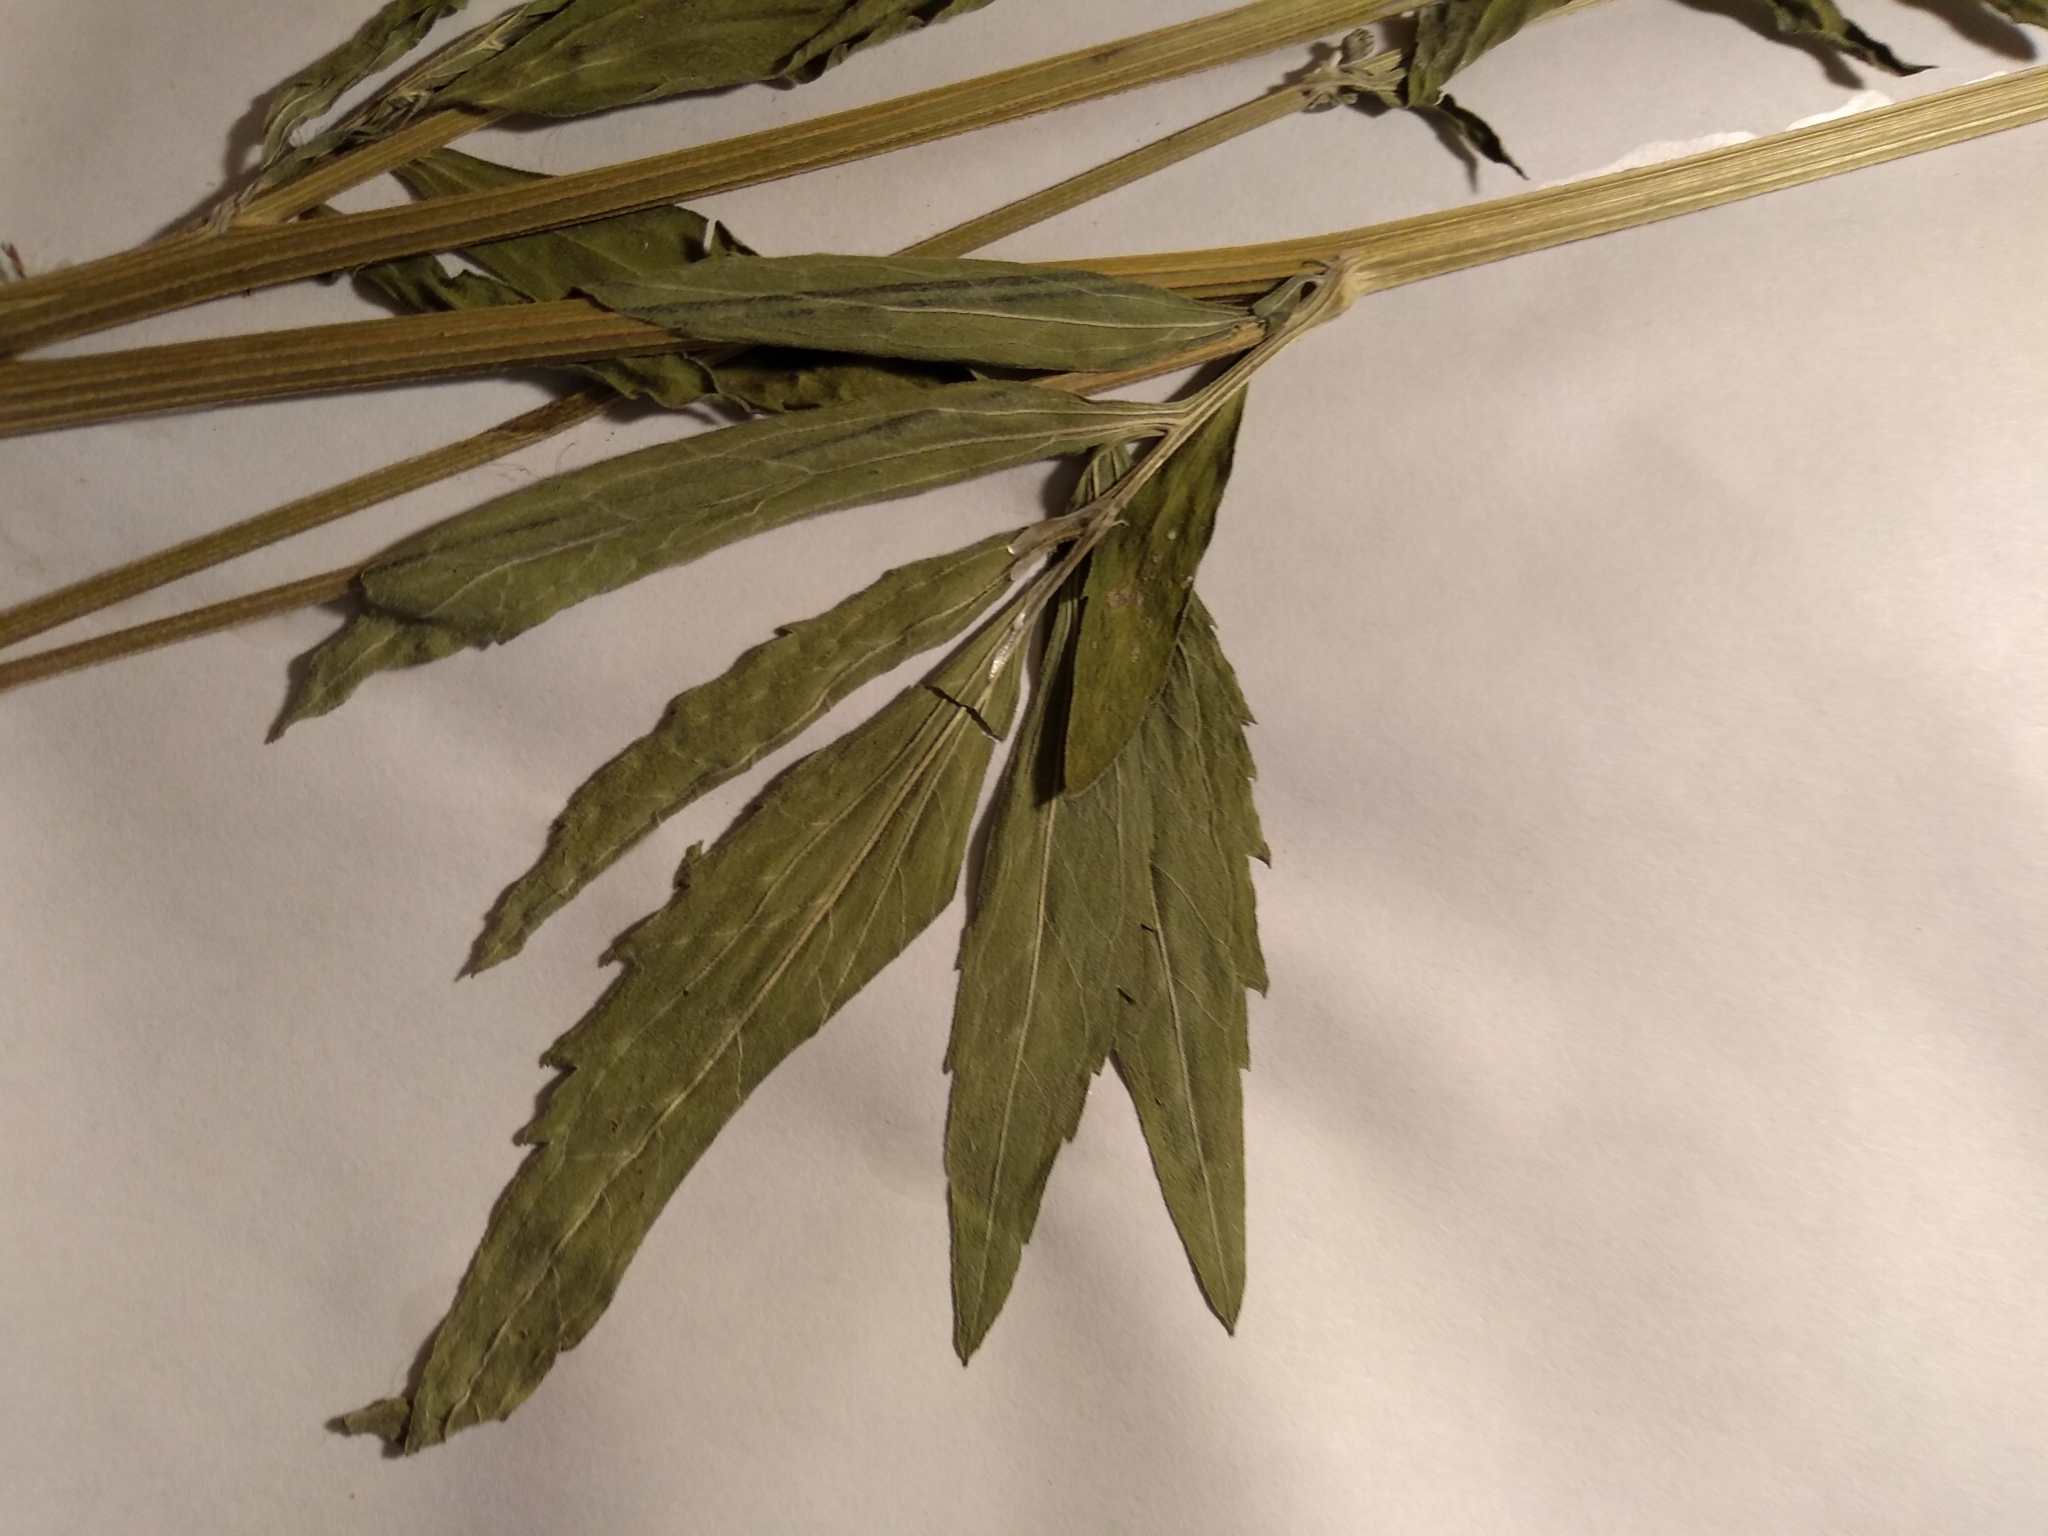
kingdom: Plantae
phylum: Tracheophyta
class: Magnoliopsida
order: Asterales
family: Asteraceae
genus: Ratibida
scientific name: Ratibida pinnata
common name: Drooping prairie-coneflower
